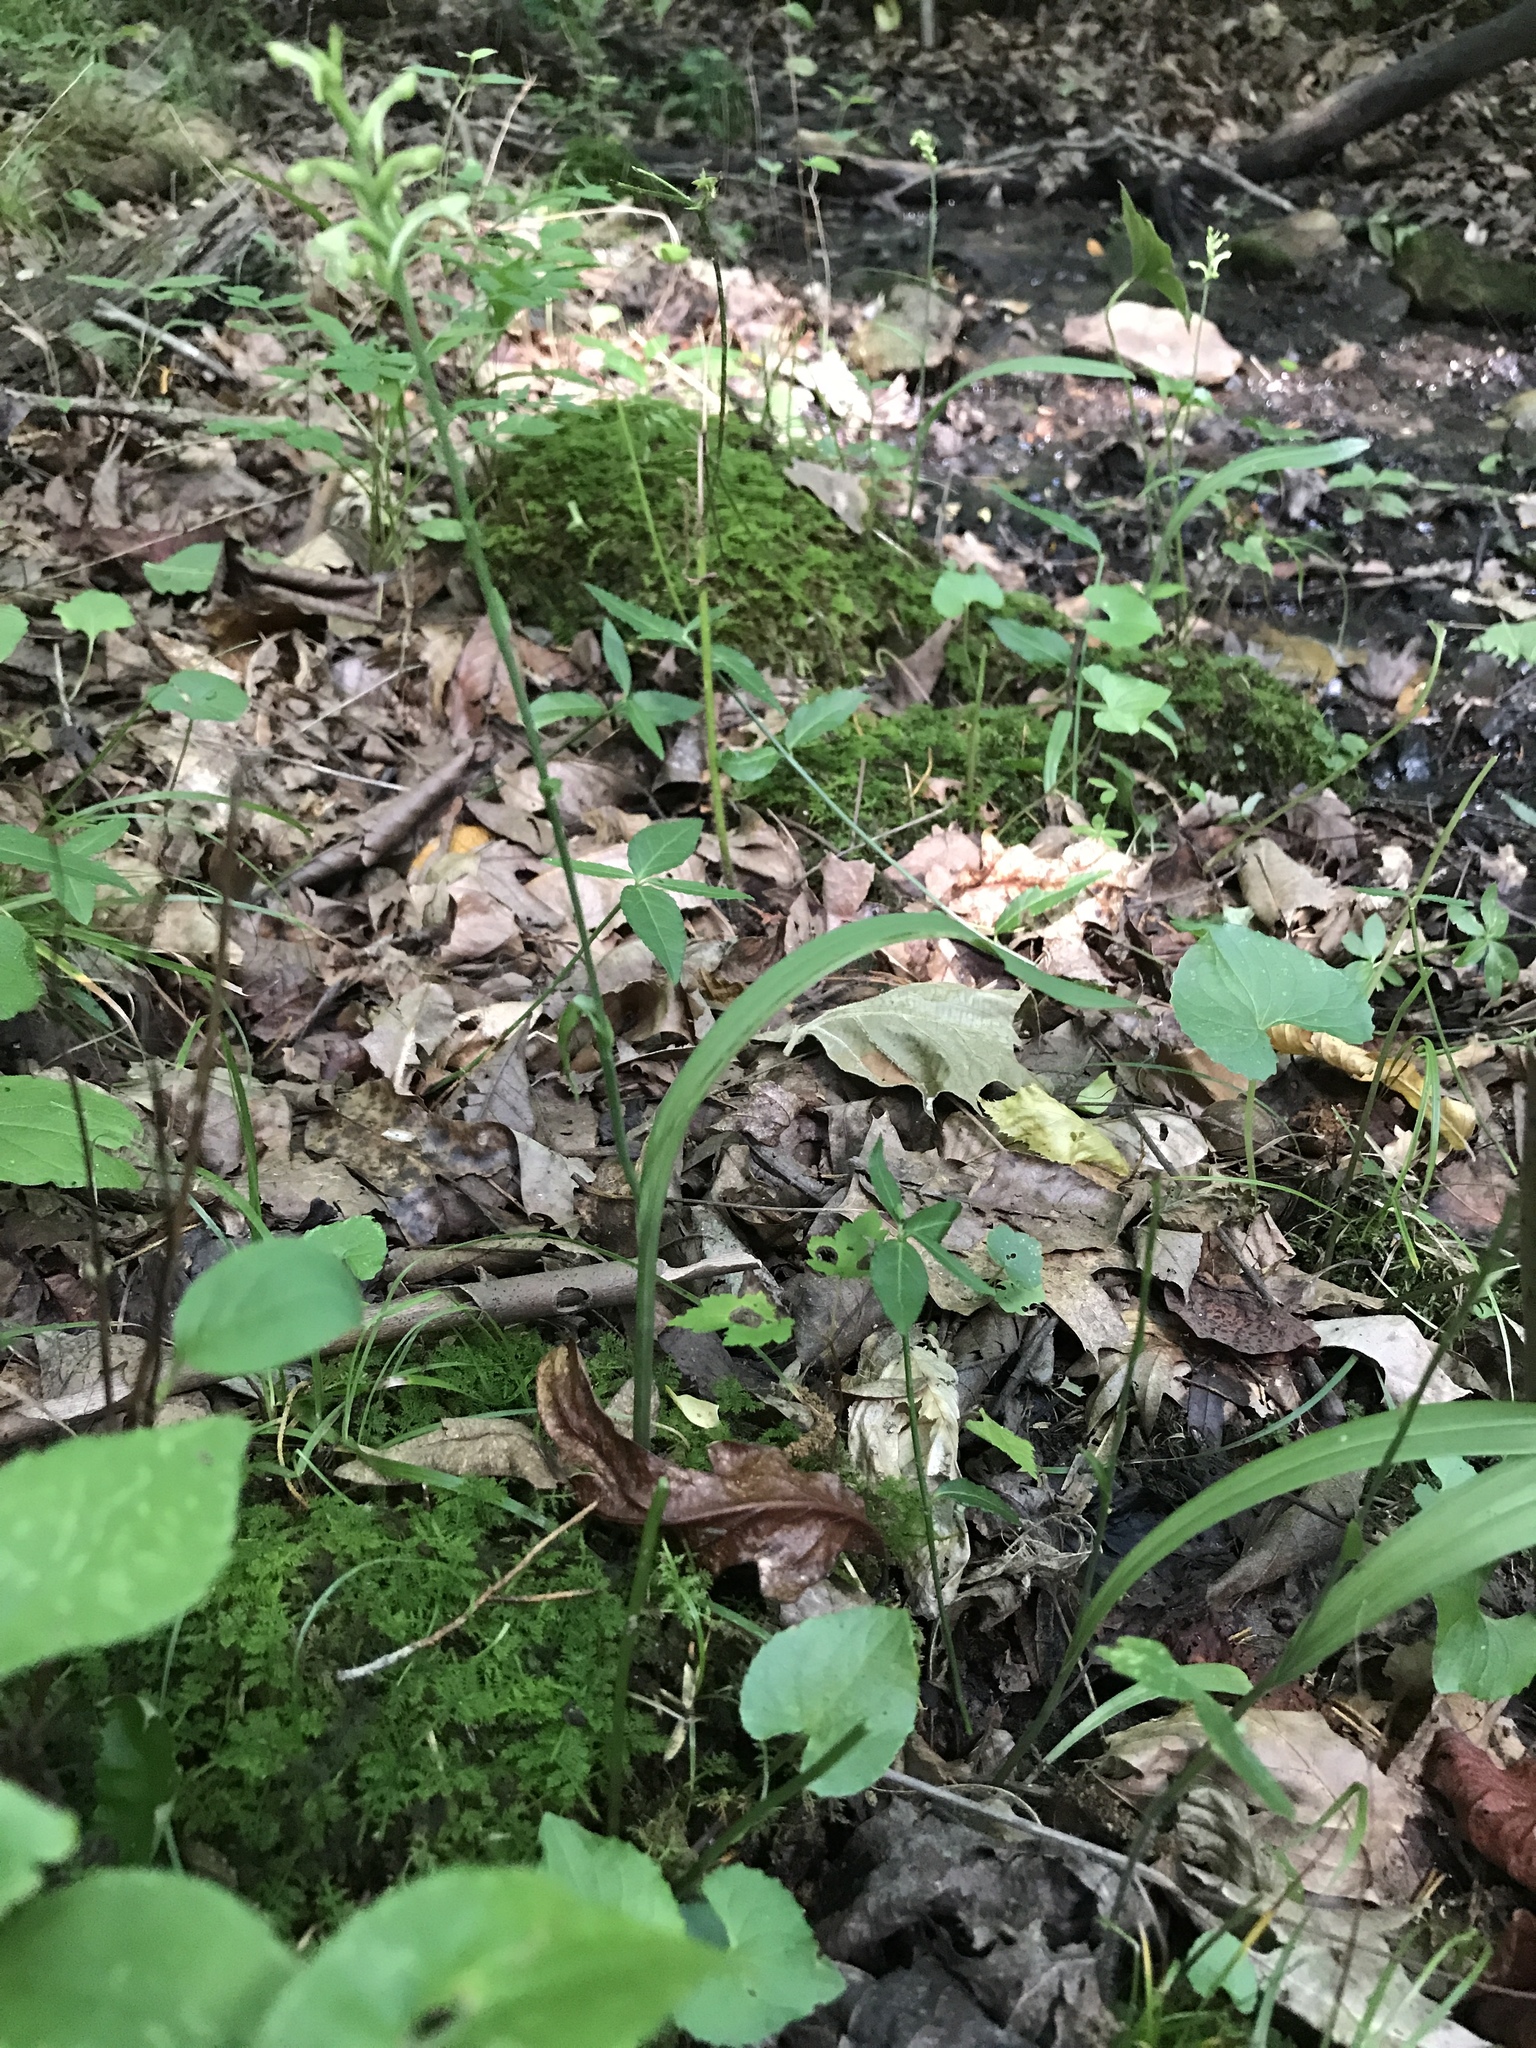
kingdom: Plantae
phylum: Tracheophyta
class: Liliopsida
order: Asparagales
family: Orchidaceae
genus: Platanthera
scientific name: Platanthera clavellata
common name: Club-spur orchid
